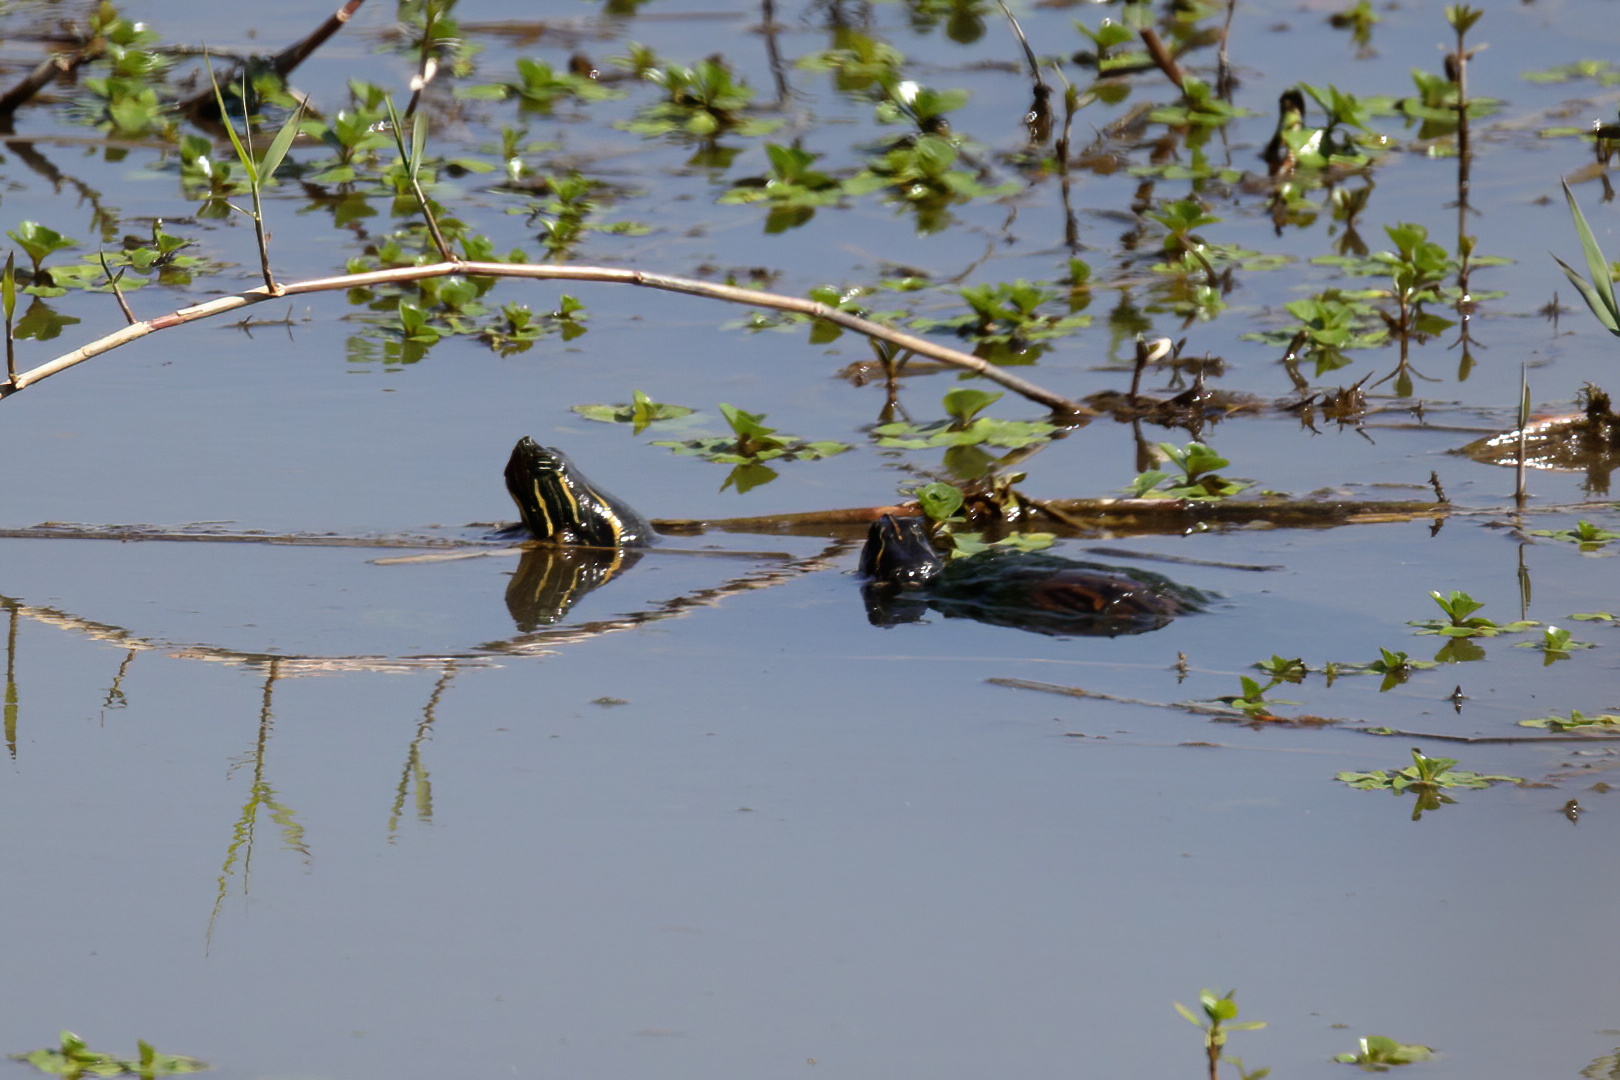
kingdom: Animalia
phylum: Chordata
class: Testudines
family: Emydidae
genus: Pseudemys
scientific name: Pseudemys concinna
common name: Eastern river cooter
